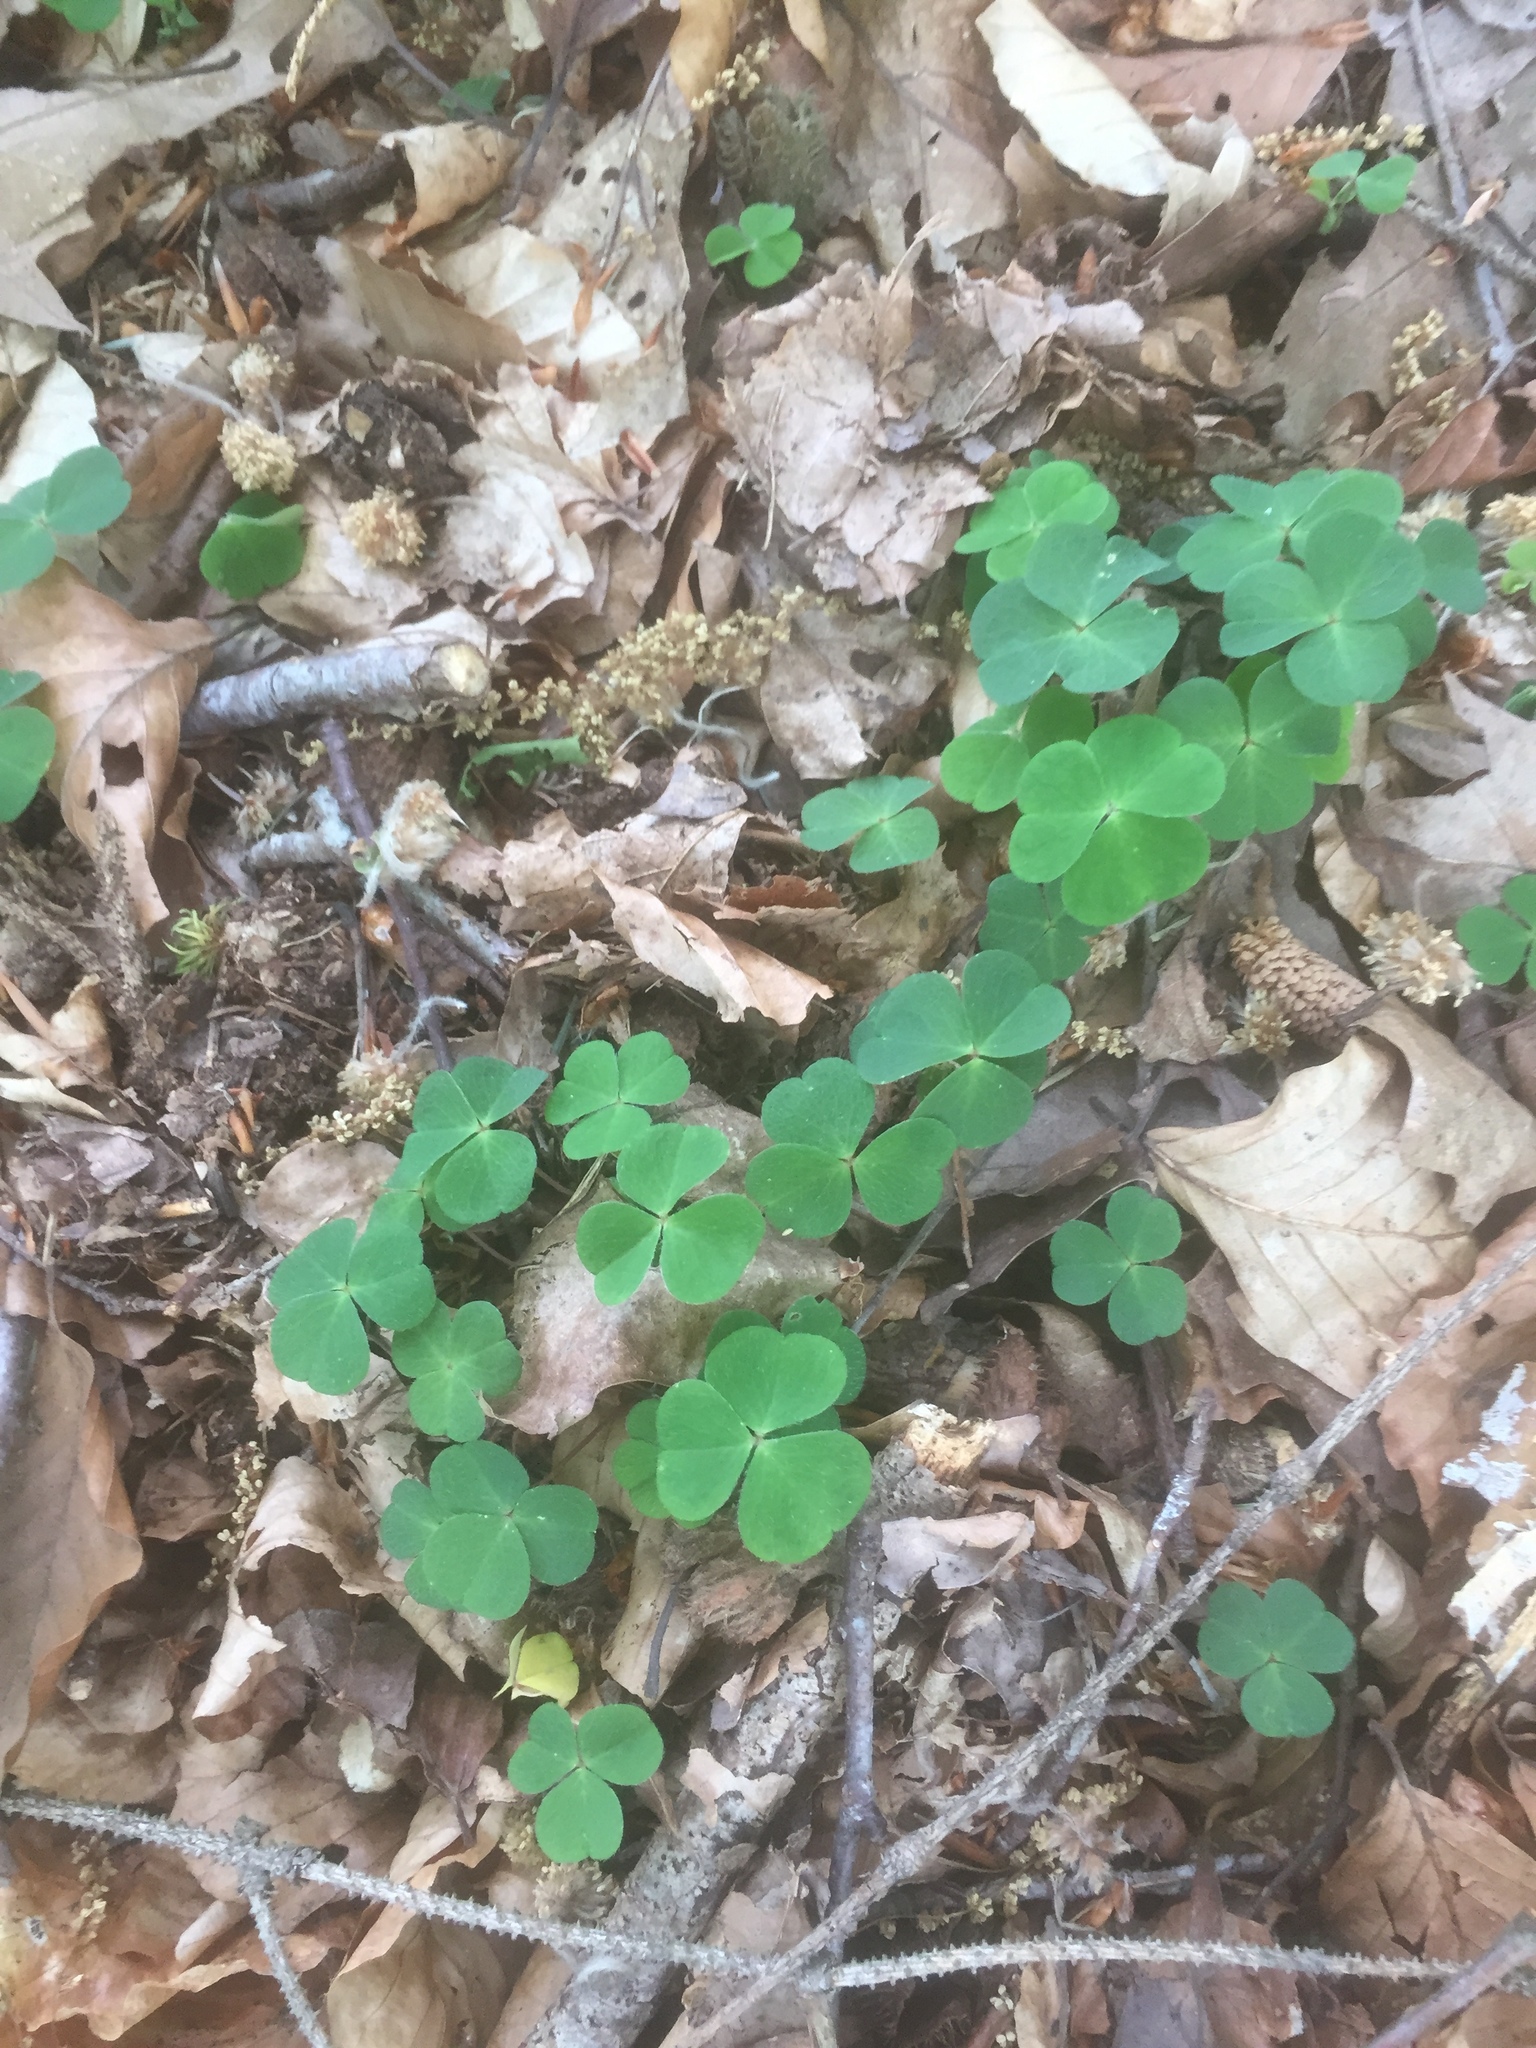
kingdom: Plantae
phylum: Tracheophyta
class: Magnoliopsida
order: Oxalidales
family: Oxalidaceae
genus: Oxalis
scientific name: Oxalis acetosella
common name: Wood-sorrel
